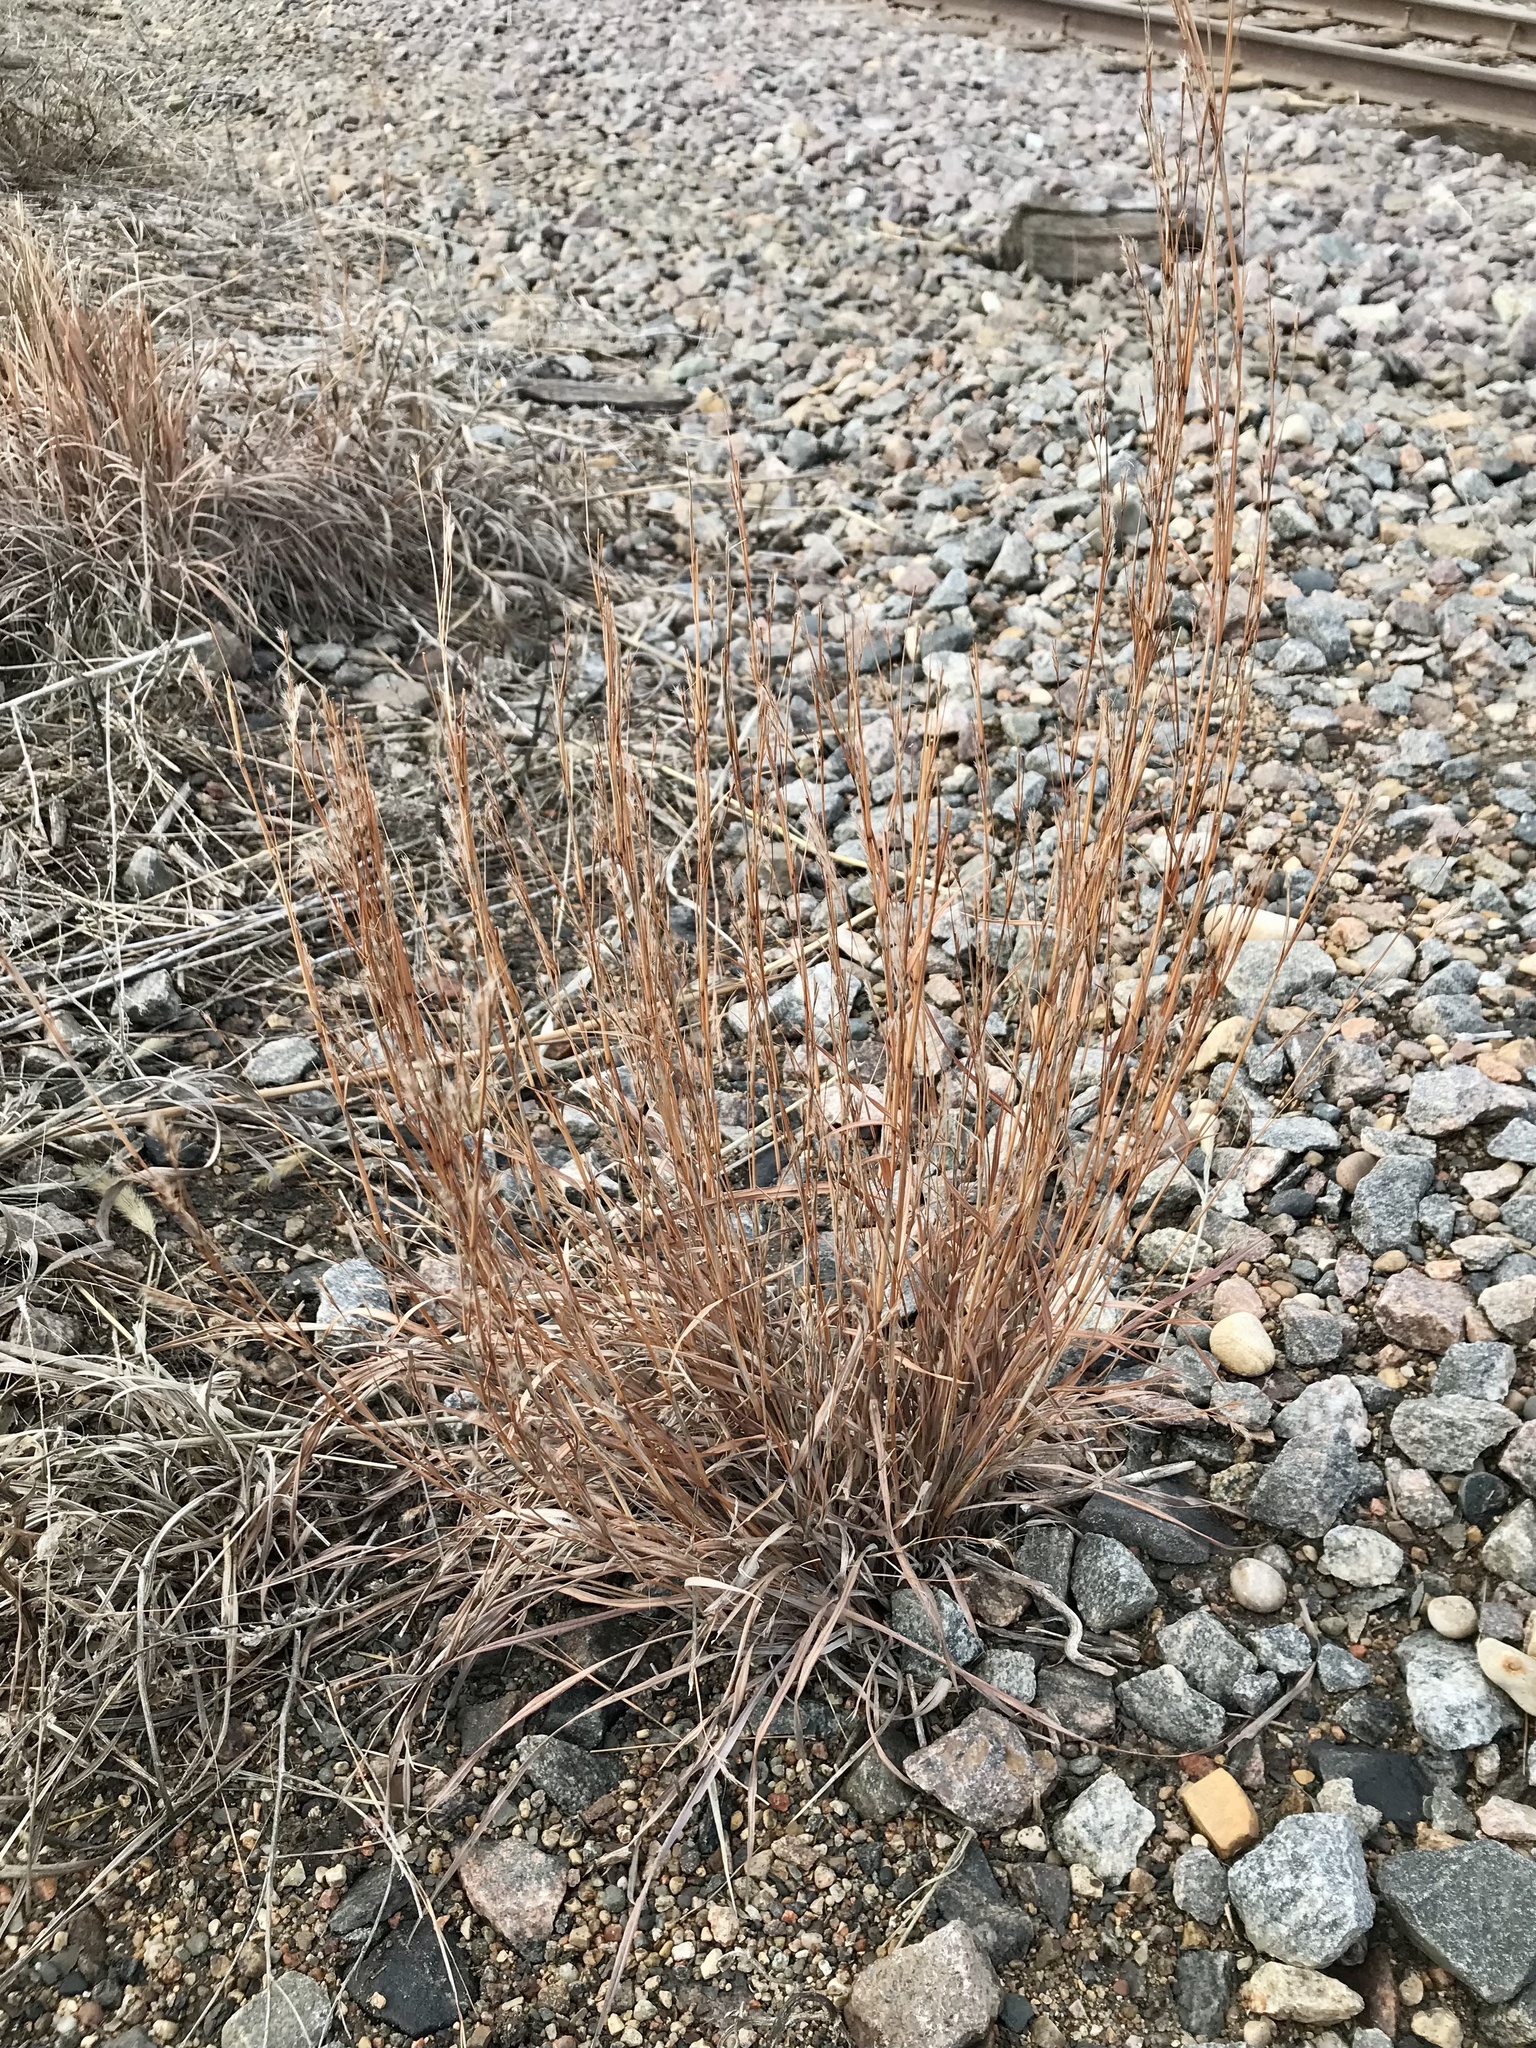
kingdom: Plantae
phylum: Tracheophyta
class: Liliopsida
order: Poales
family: Poaceae
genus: Schizachyrium
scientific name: Schizachyrium scoparium
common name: Little bluestem
